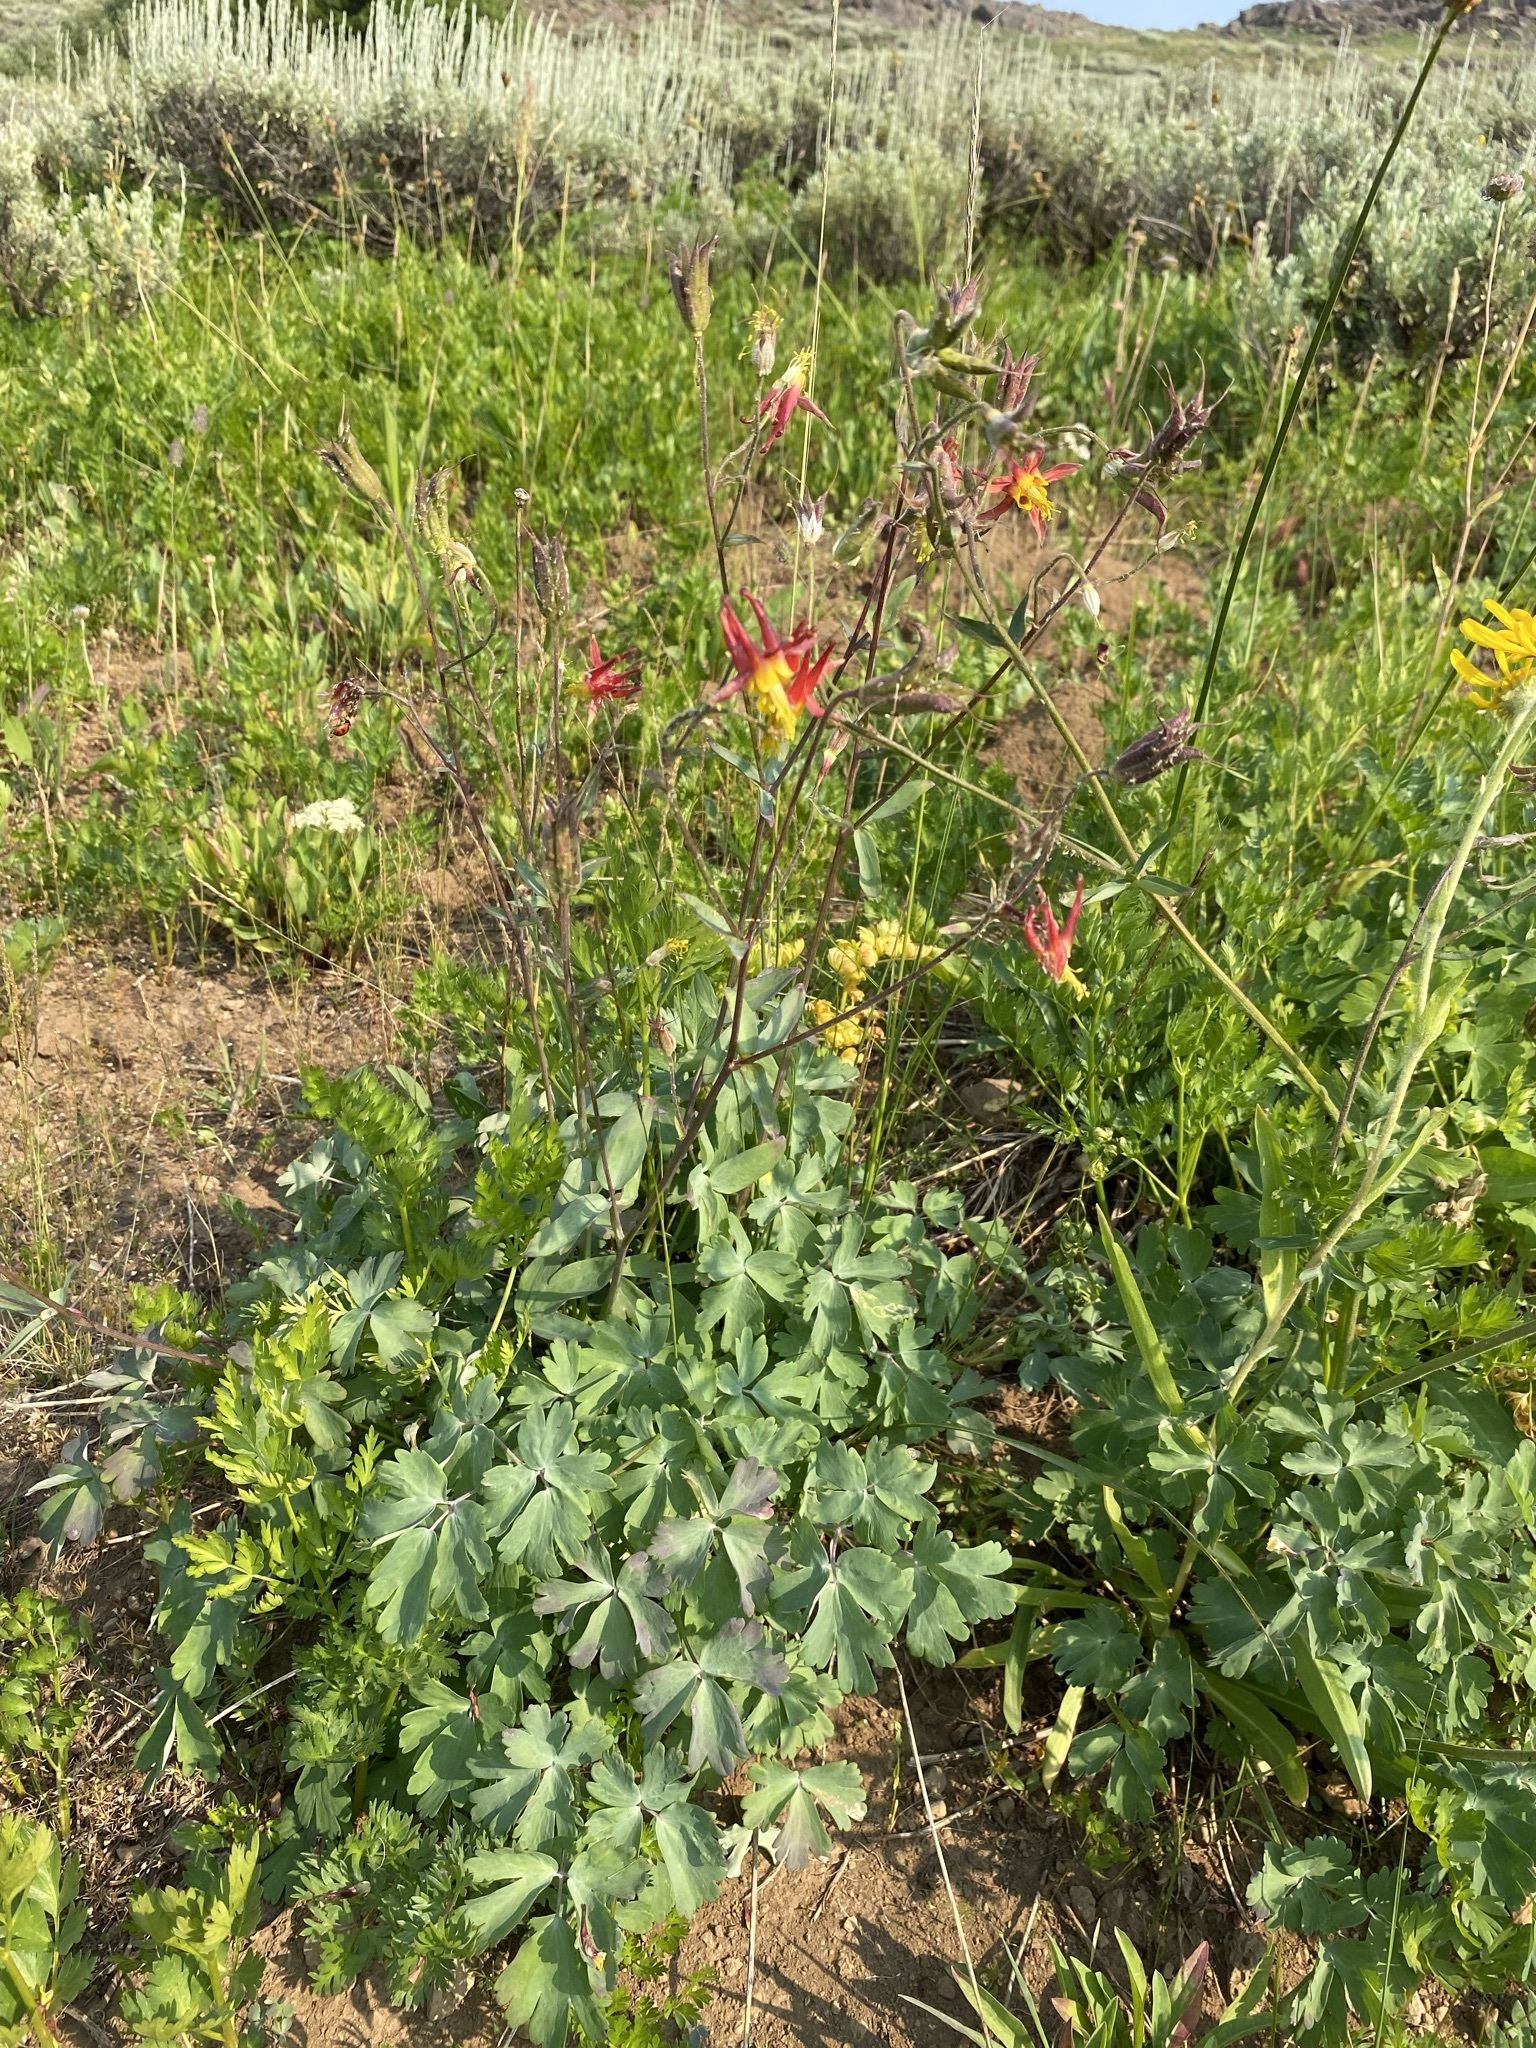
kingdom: Plantae
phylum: Tracheophyta
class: Magnoliopsida
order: Ranunculales
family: Ranunculaceae
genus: Aquilegia
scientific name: Aquilegia formosa
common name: Sitka columbine
